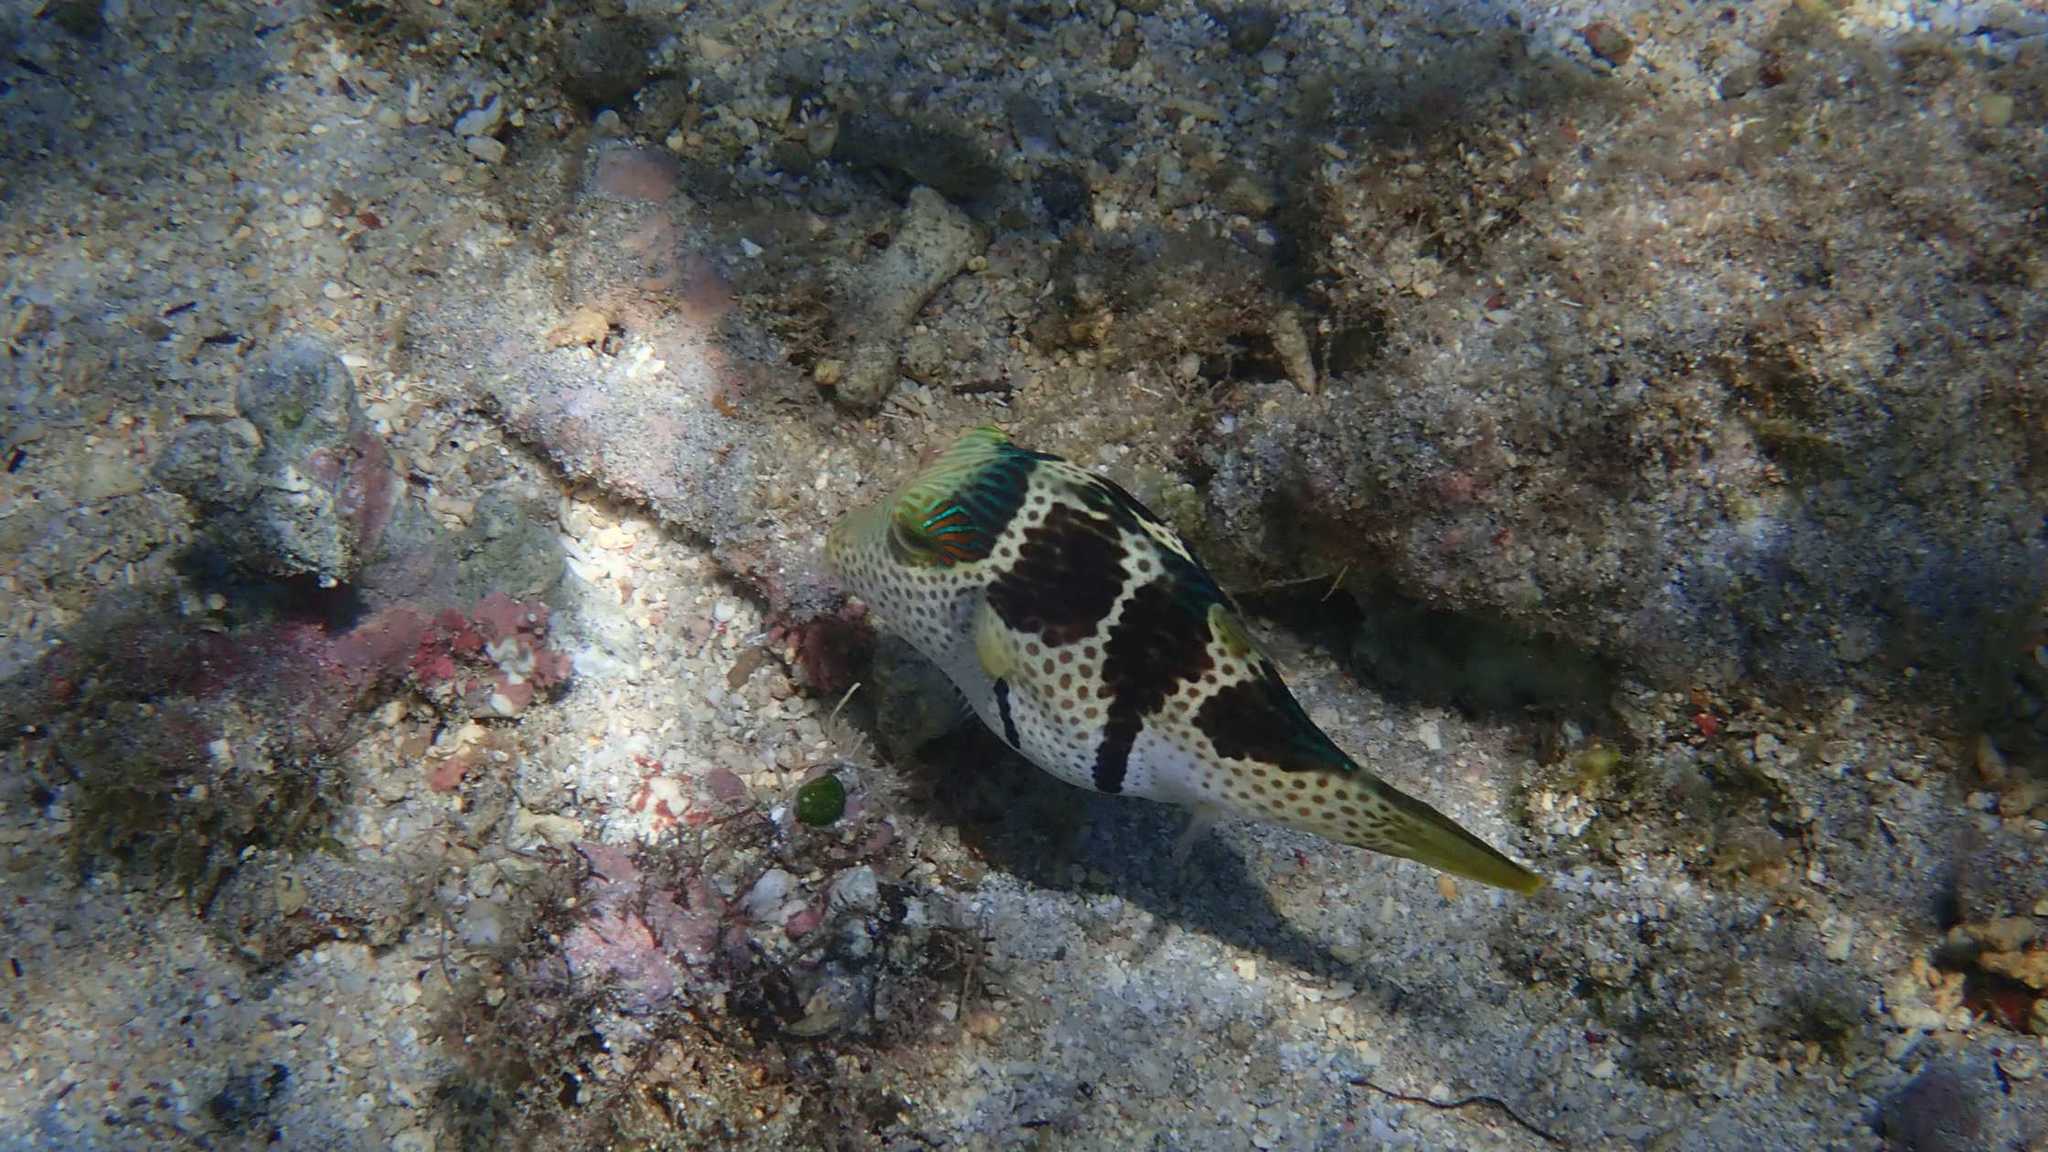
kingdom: Animalia
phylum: Chordata
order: Tetraodontiformes
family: Tetraodontidae
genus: Canthigaster
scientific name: Canthigaster valentini
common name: Banded toby
